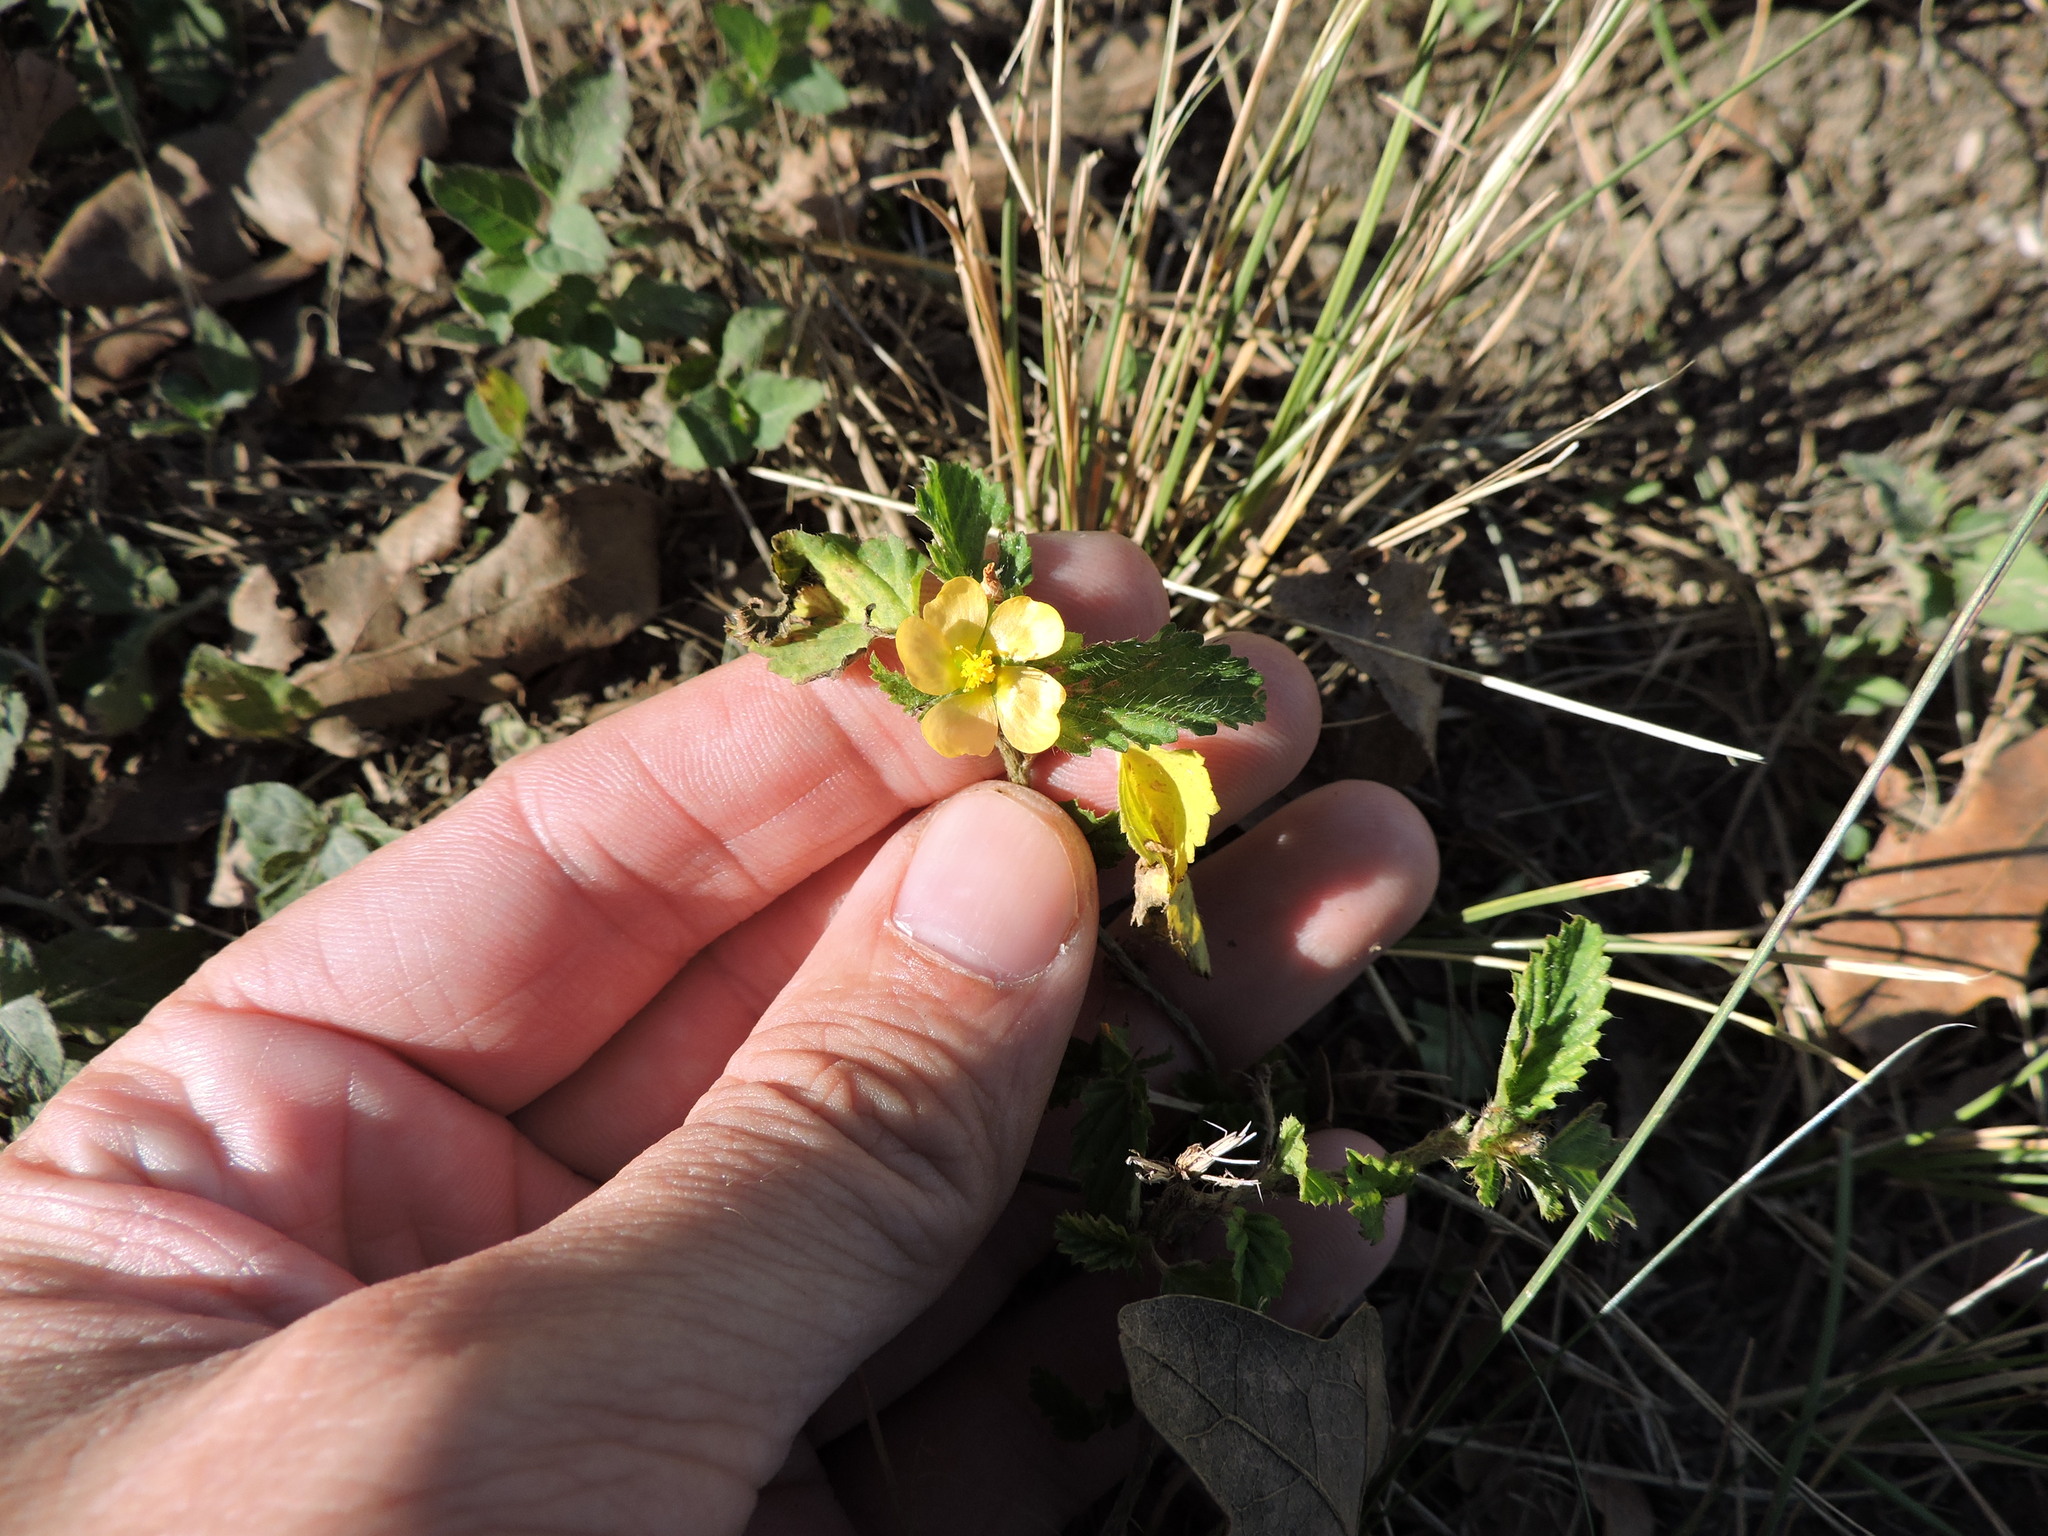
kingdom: Plantae
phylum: Tracheophyta
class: Magnoliopsida
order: Malvales
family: Malvaceae
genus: Malvastrum
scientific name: Malvastrum coromandelianum
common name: Threelobe false mallow
